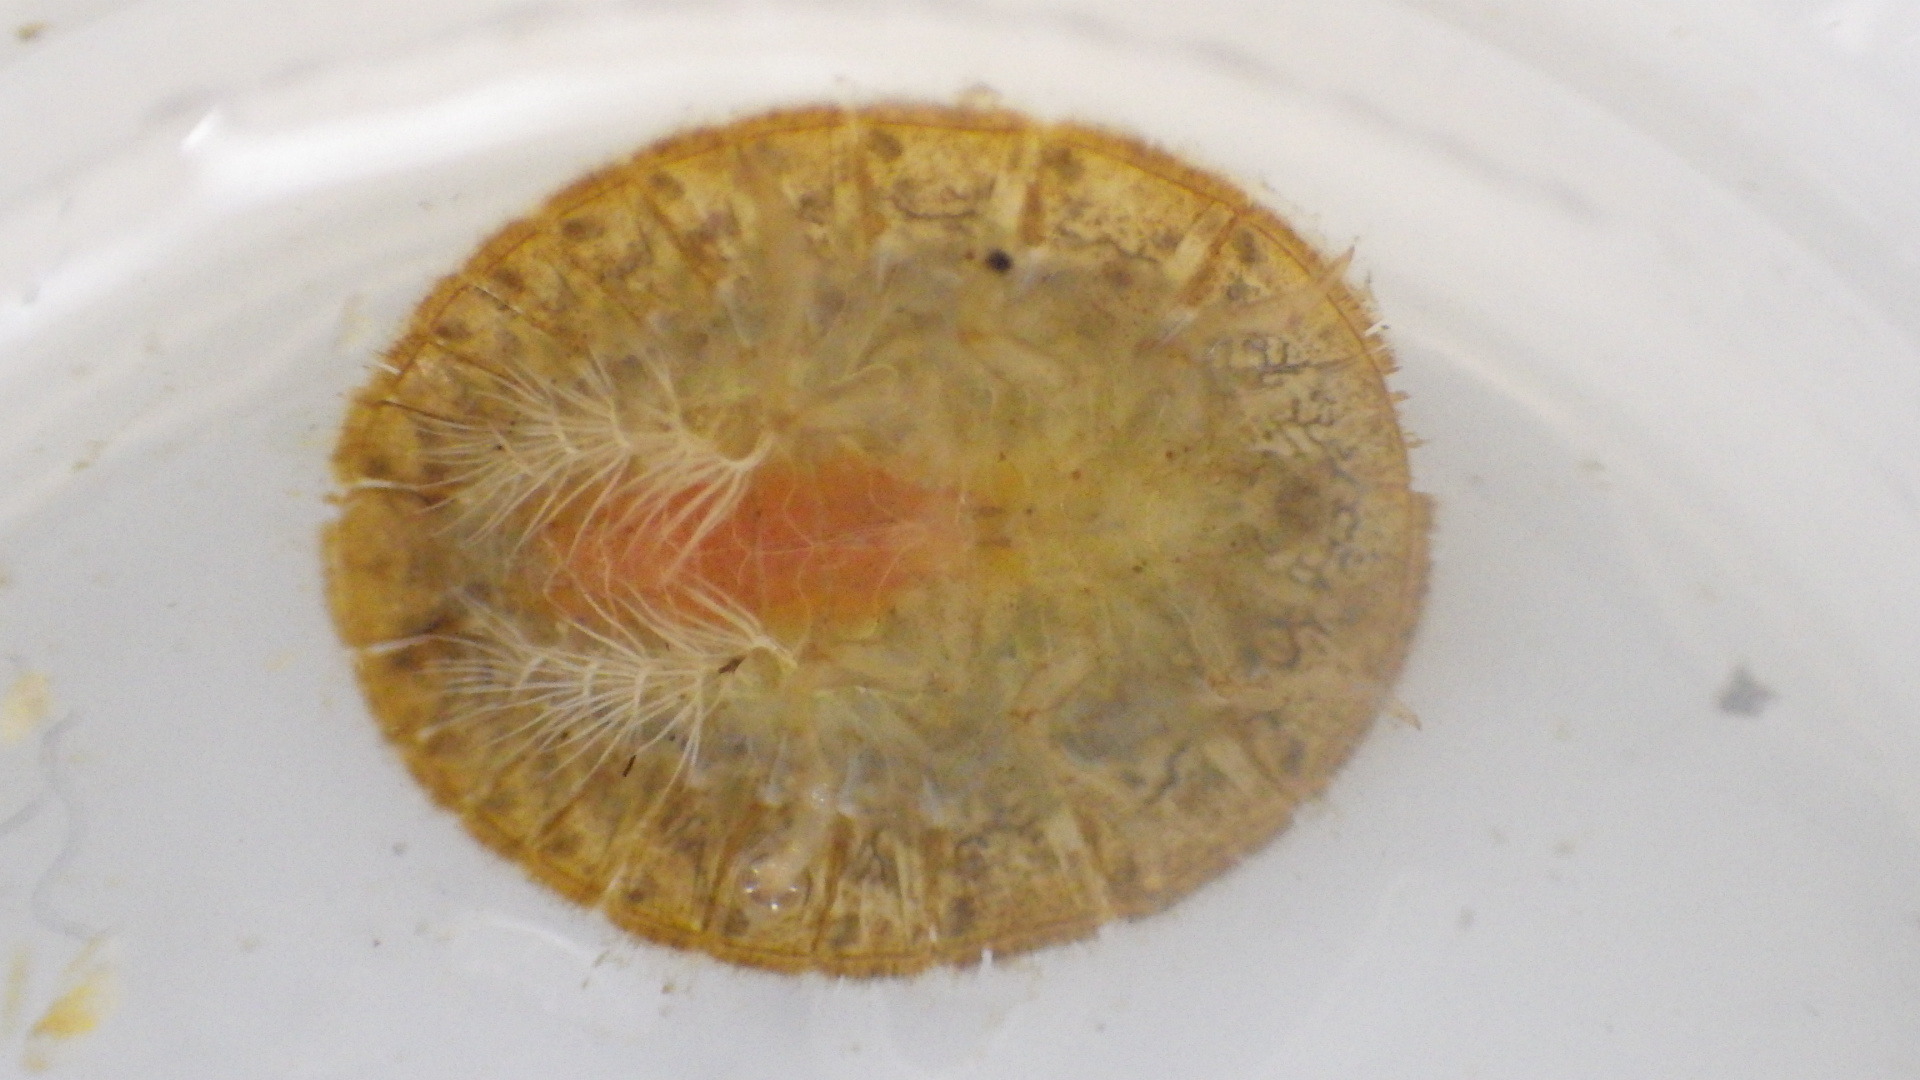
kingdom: Animalia
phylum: Arthropoda
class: Insecta
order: Coleoptera
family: Psephenidae
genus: Psephenus
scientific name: Psephenus herricki
